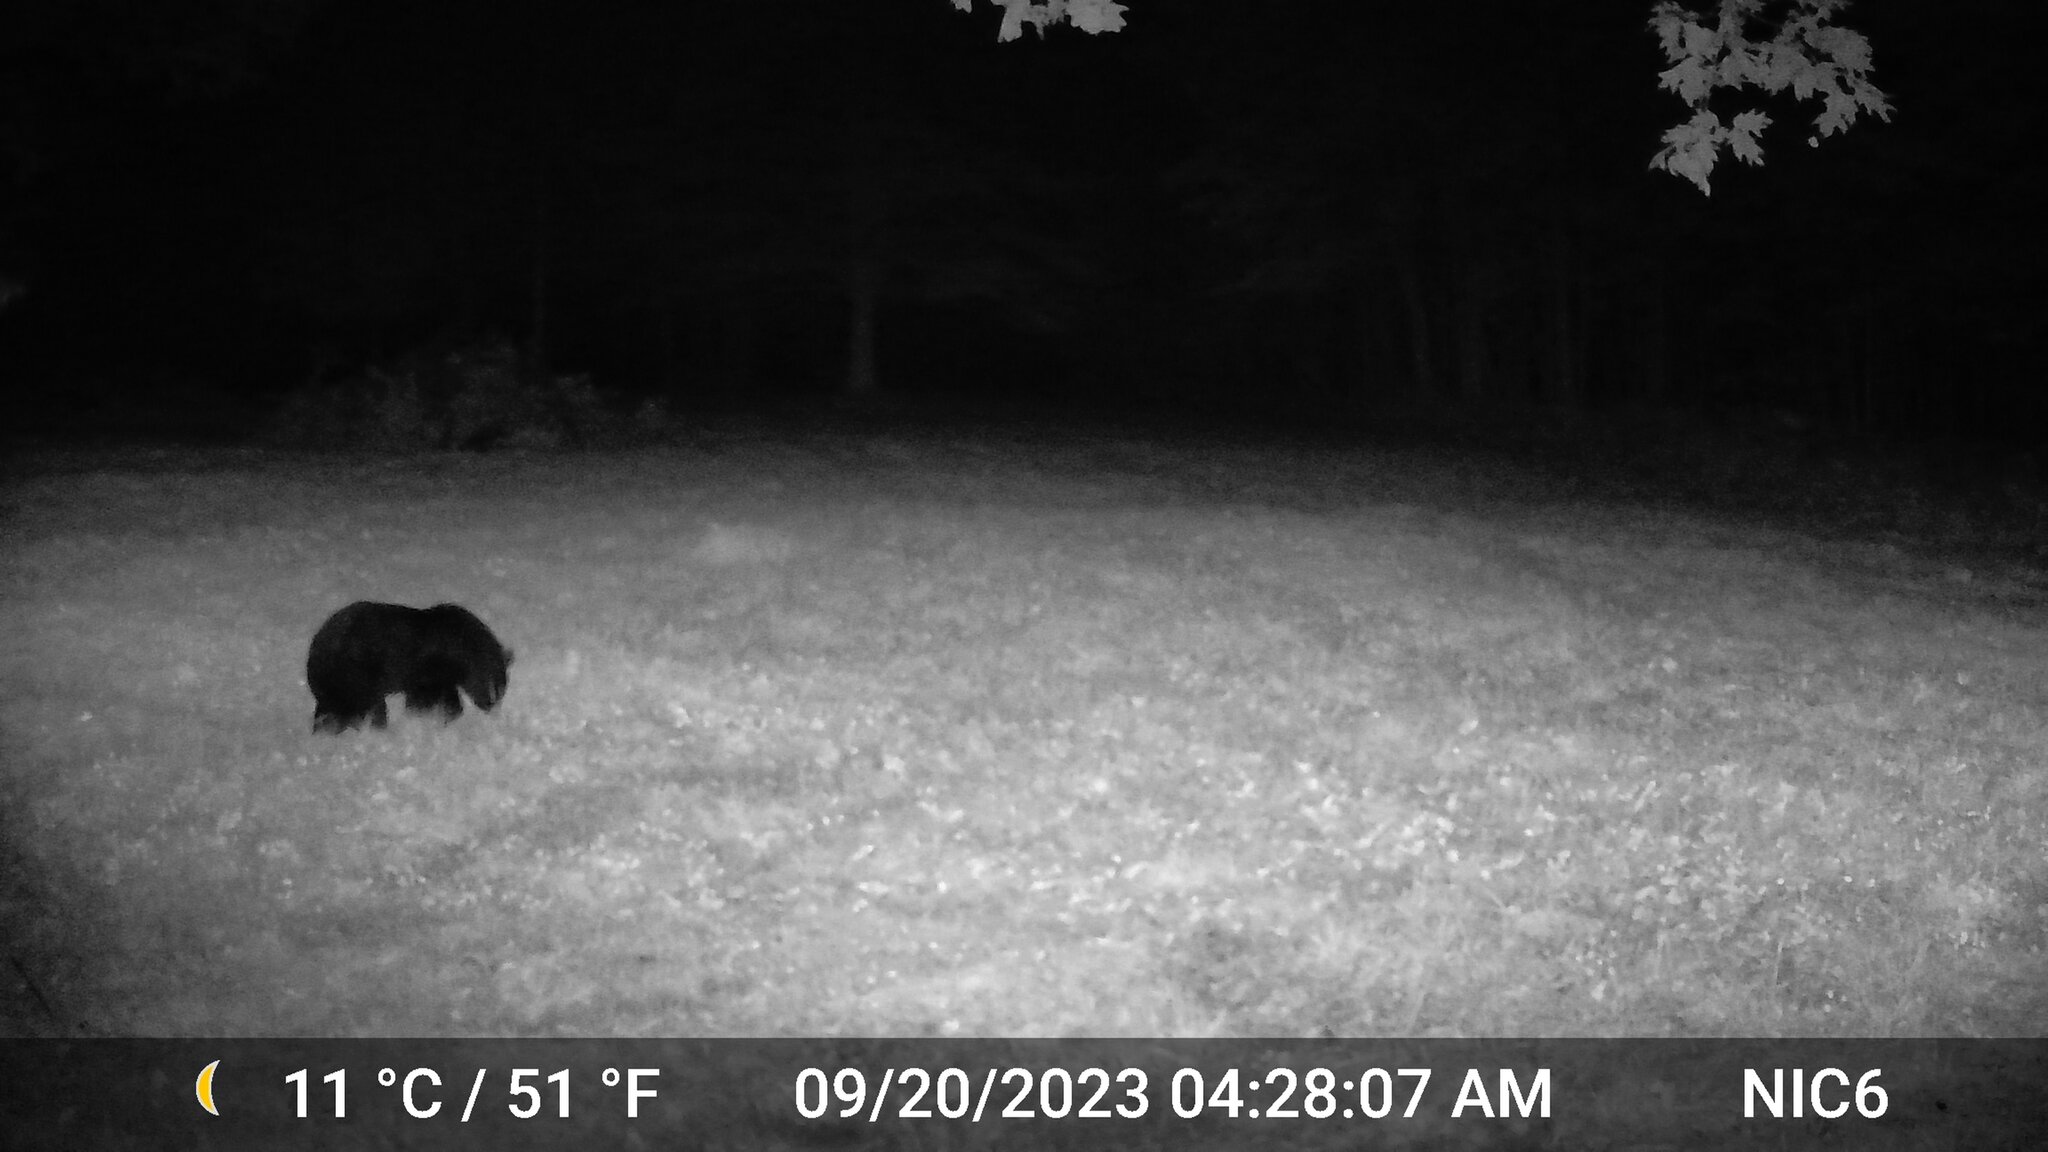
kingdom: Animalia
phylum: Chordata
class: Mammalia
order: Carnivora
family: Ursidae
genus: Ursus
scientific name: Ursus americanus
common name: American black bear
